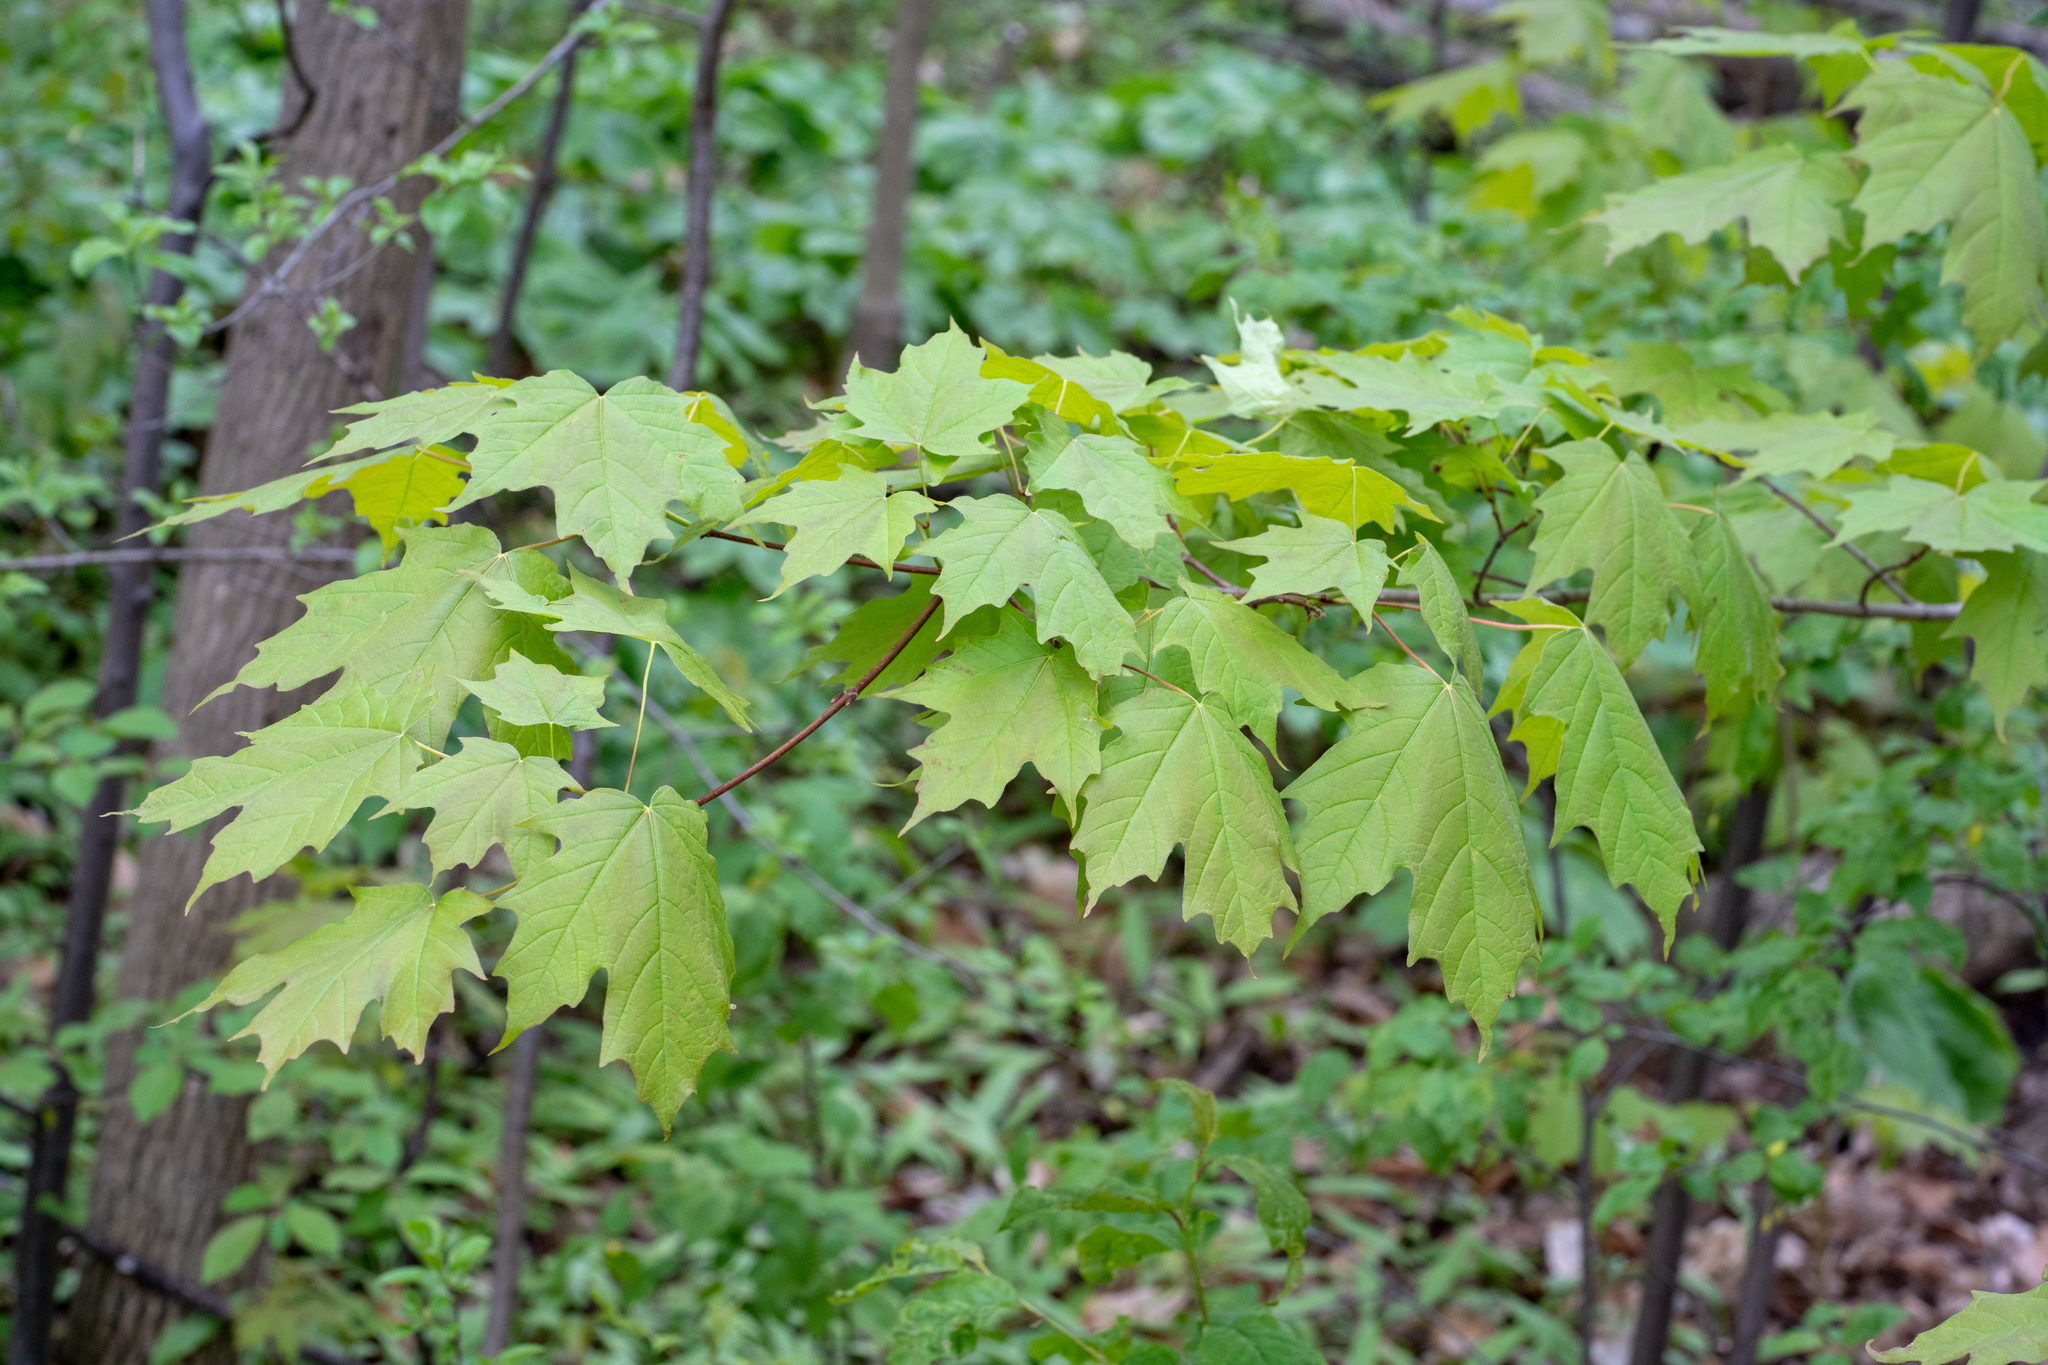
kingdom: Plantae
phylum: Tracheophyta
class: Magnoliopsida
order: Sapindales
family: Sapindaceae
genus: Acer
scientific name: Acer saccharum
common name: Sugar maple
